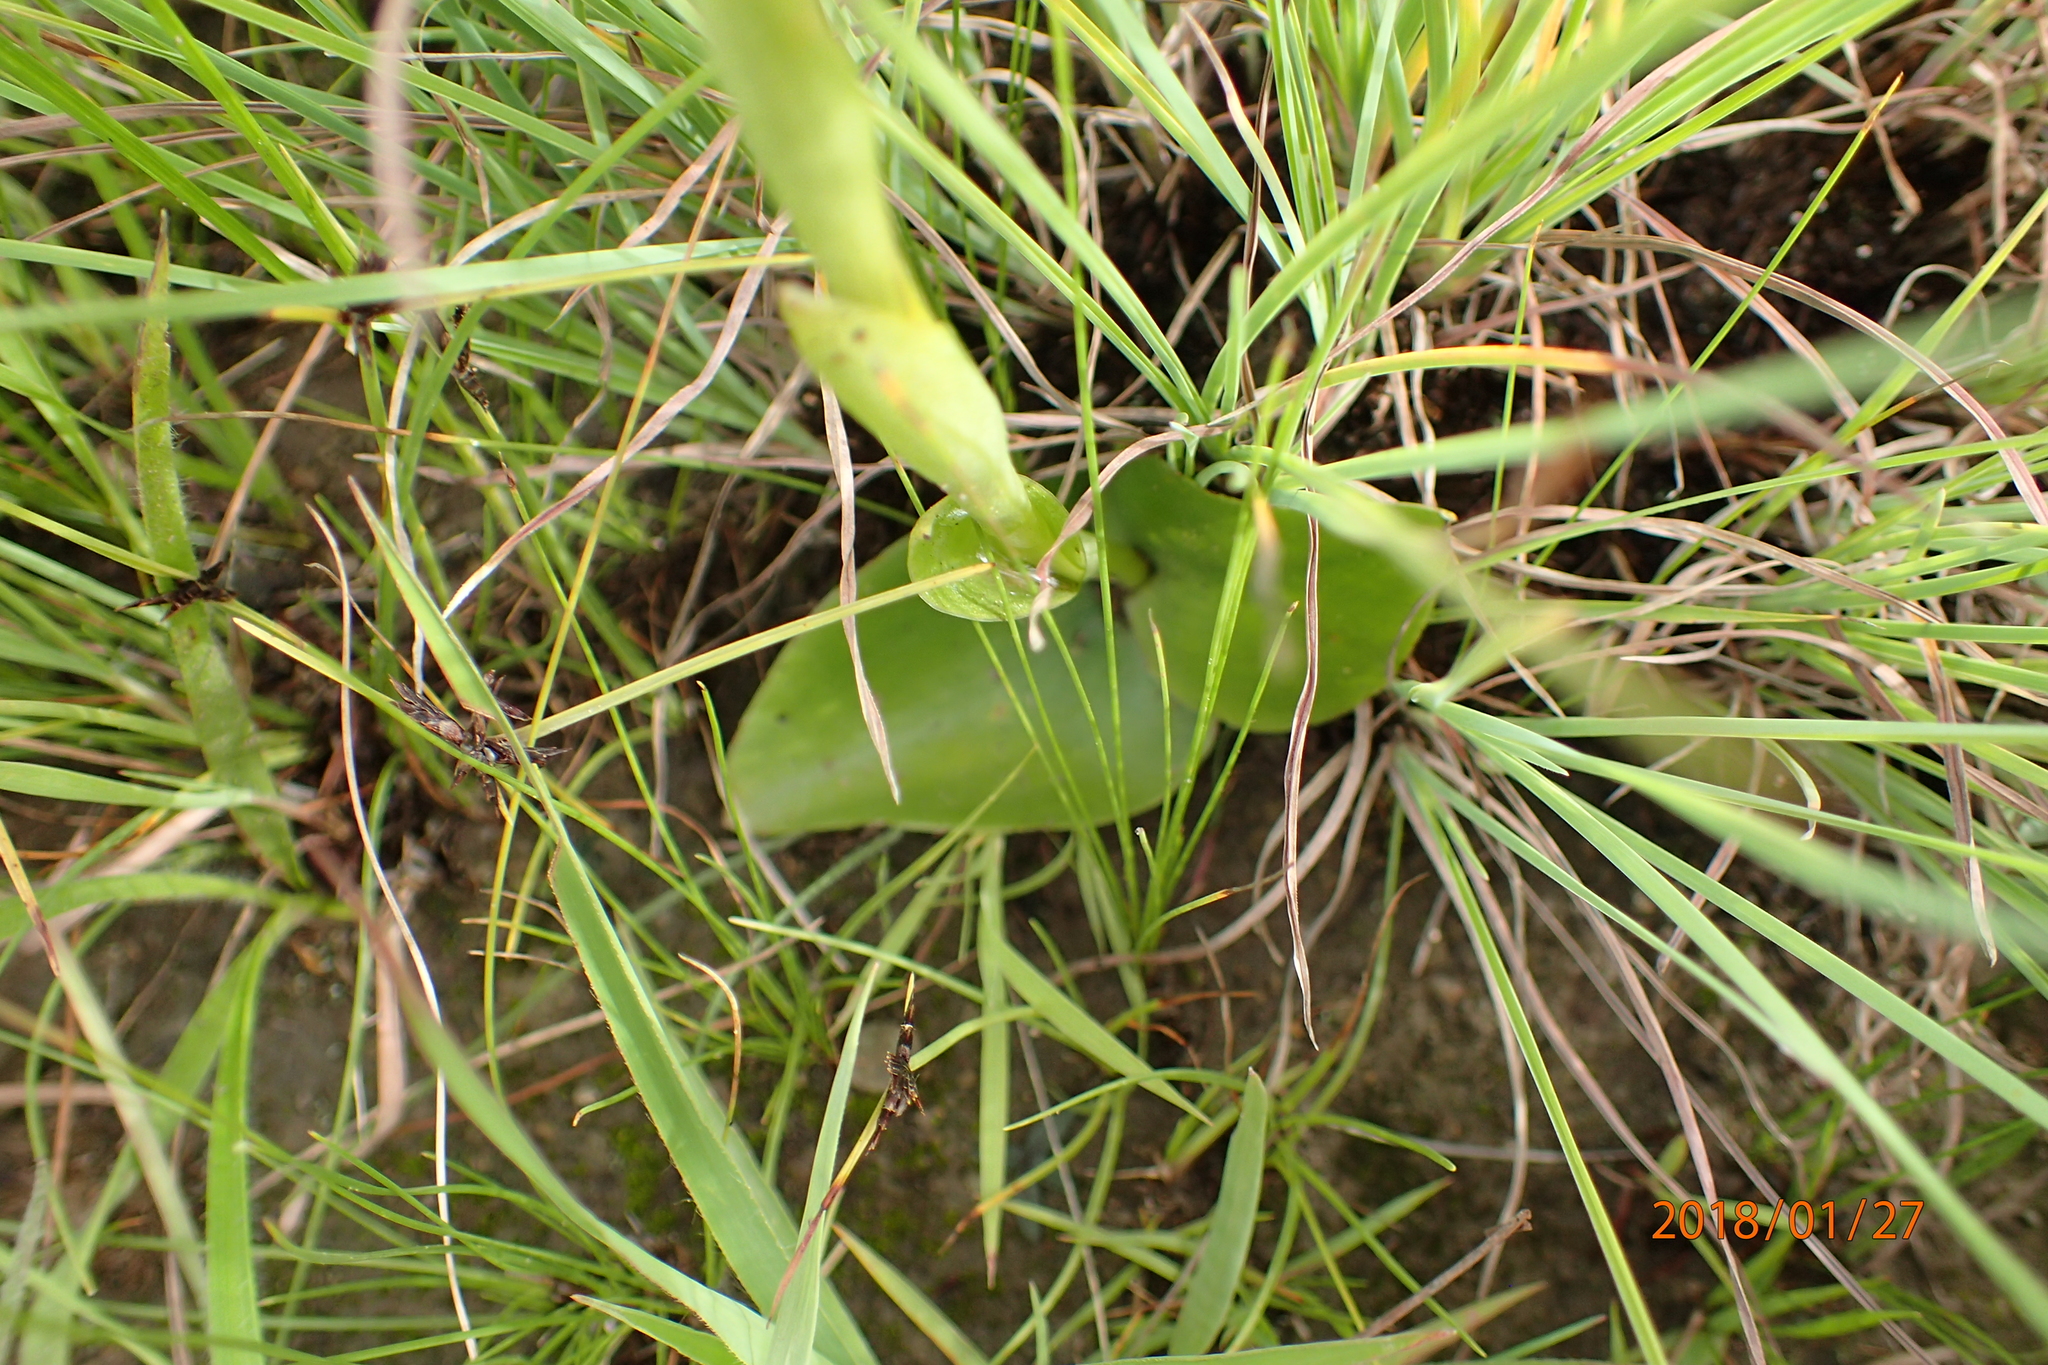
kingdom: Plantae
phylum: Tracheophyta
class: Liliopsida
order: Asparagales
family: Orchidaceae
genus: Satyrium
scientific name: Satyrium cristatum
